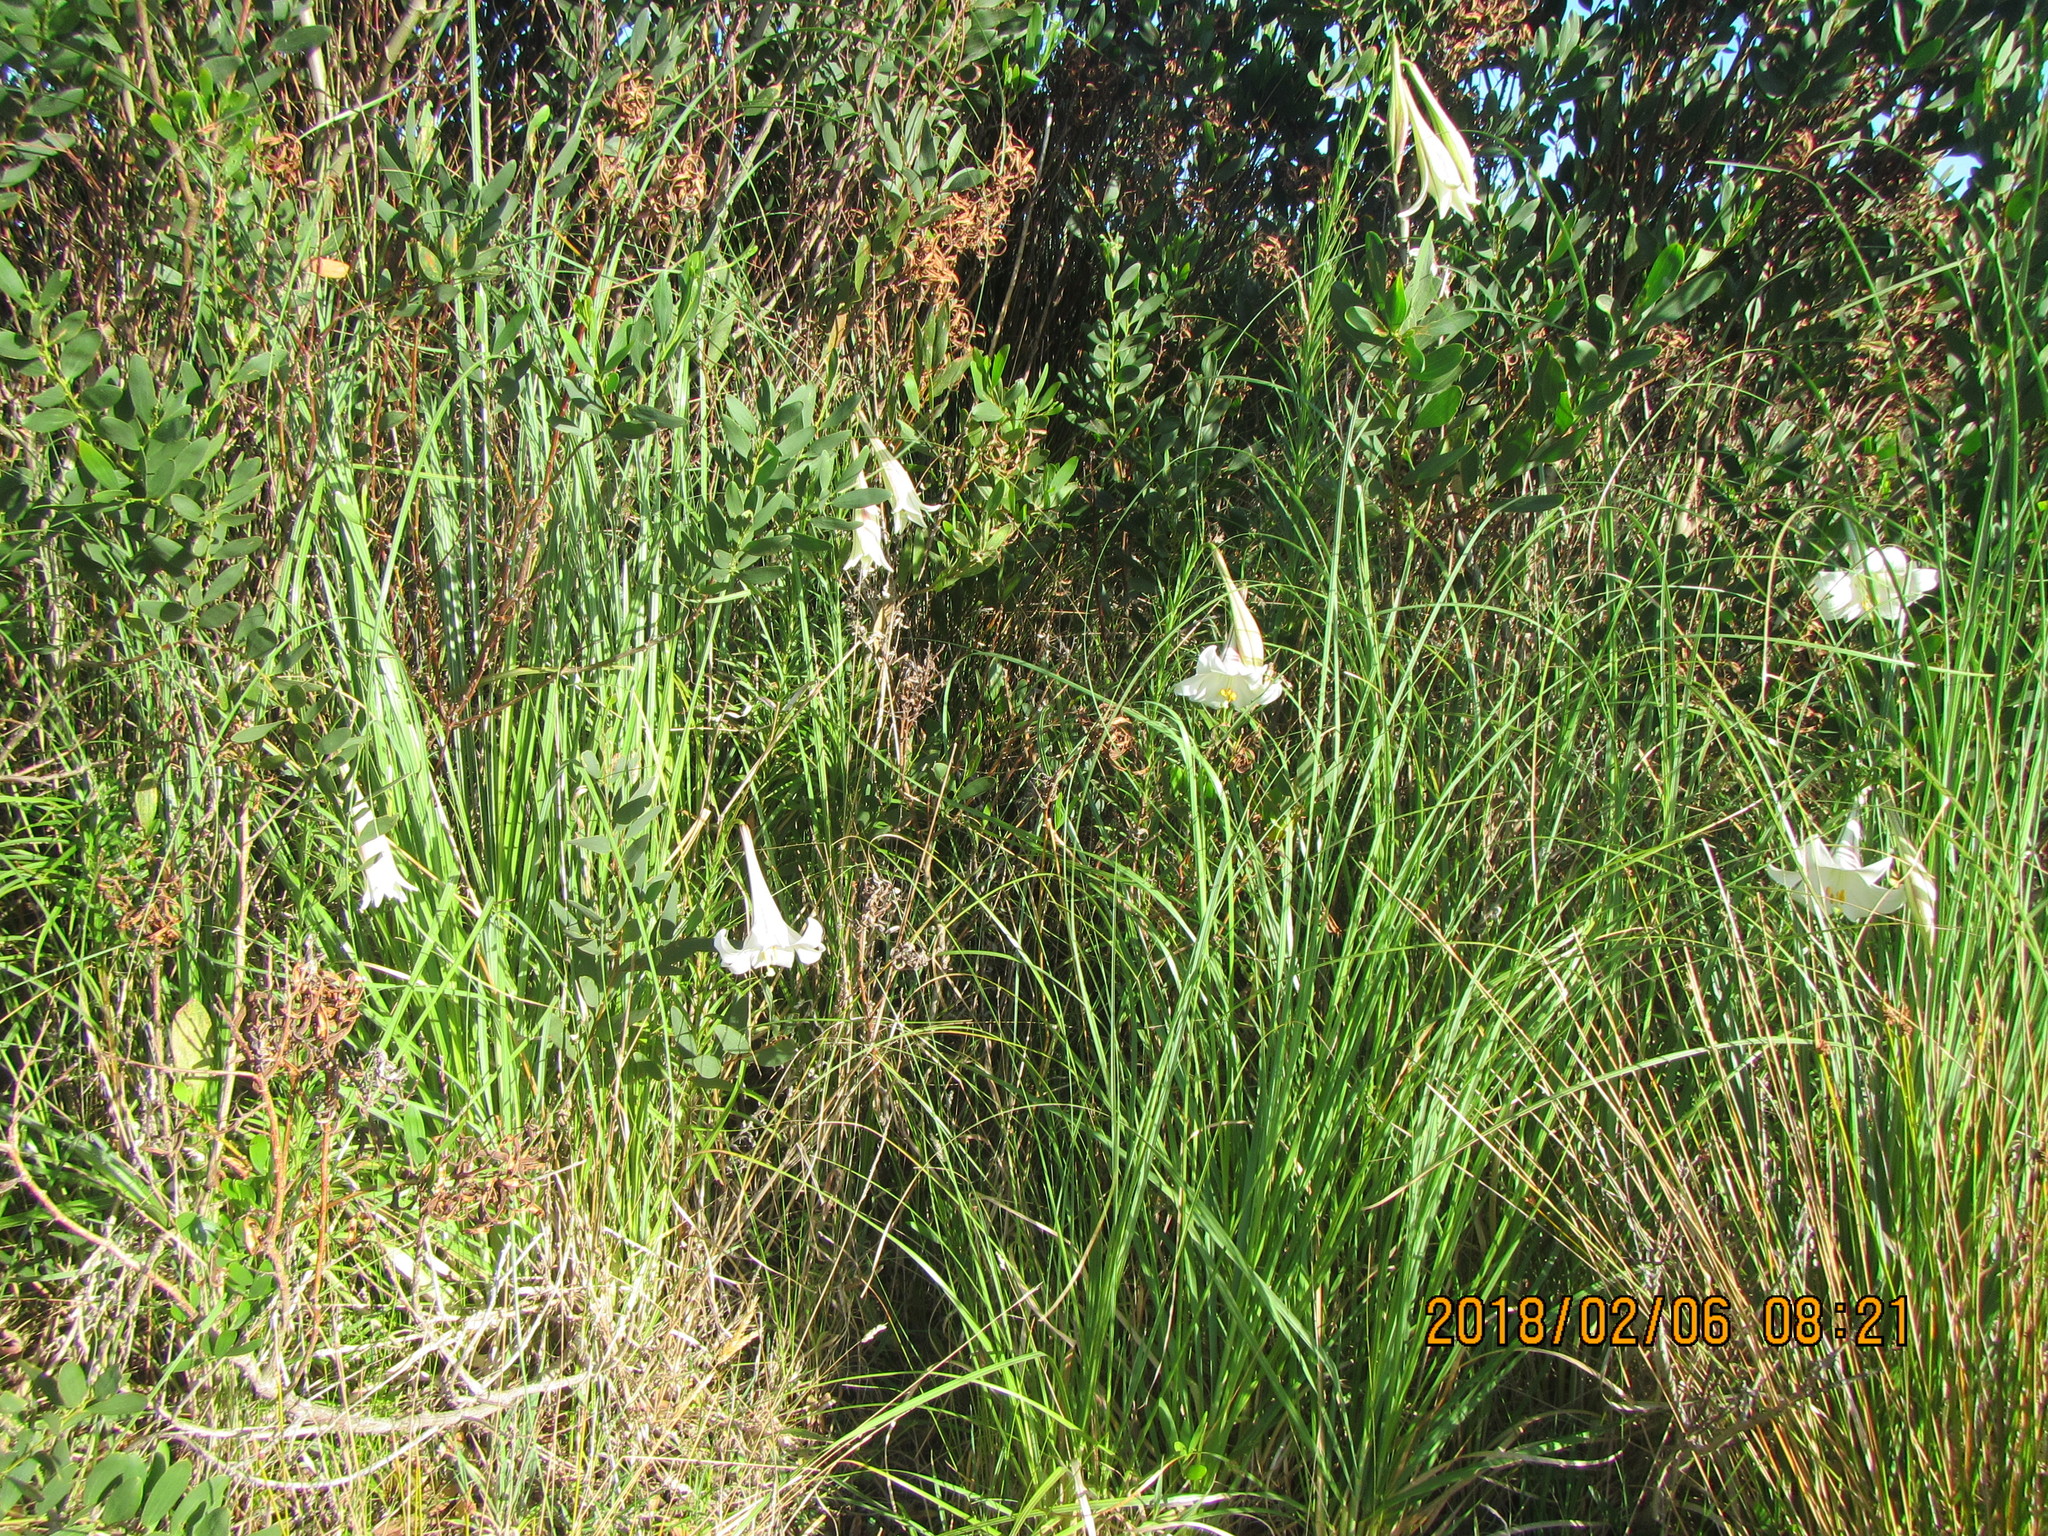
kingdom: Plantae
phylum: Tracheophyta
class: Liliopsida
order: Liliales
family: Liliaceae
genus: Lilium
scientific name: Lilium formosanum
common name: Formosa lily
